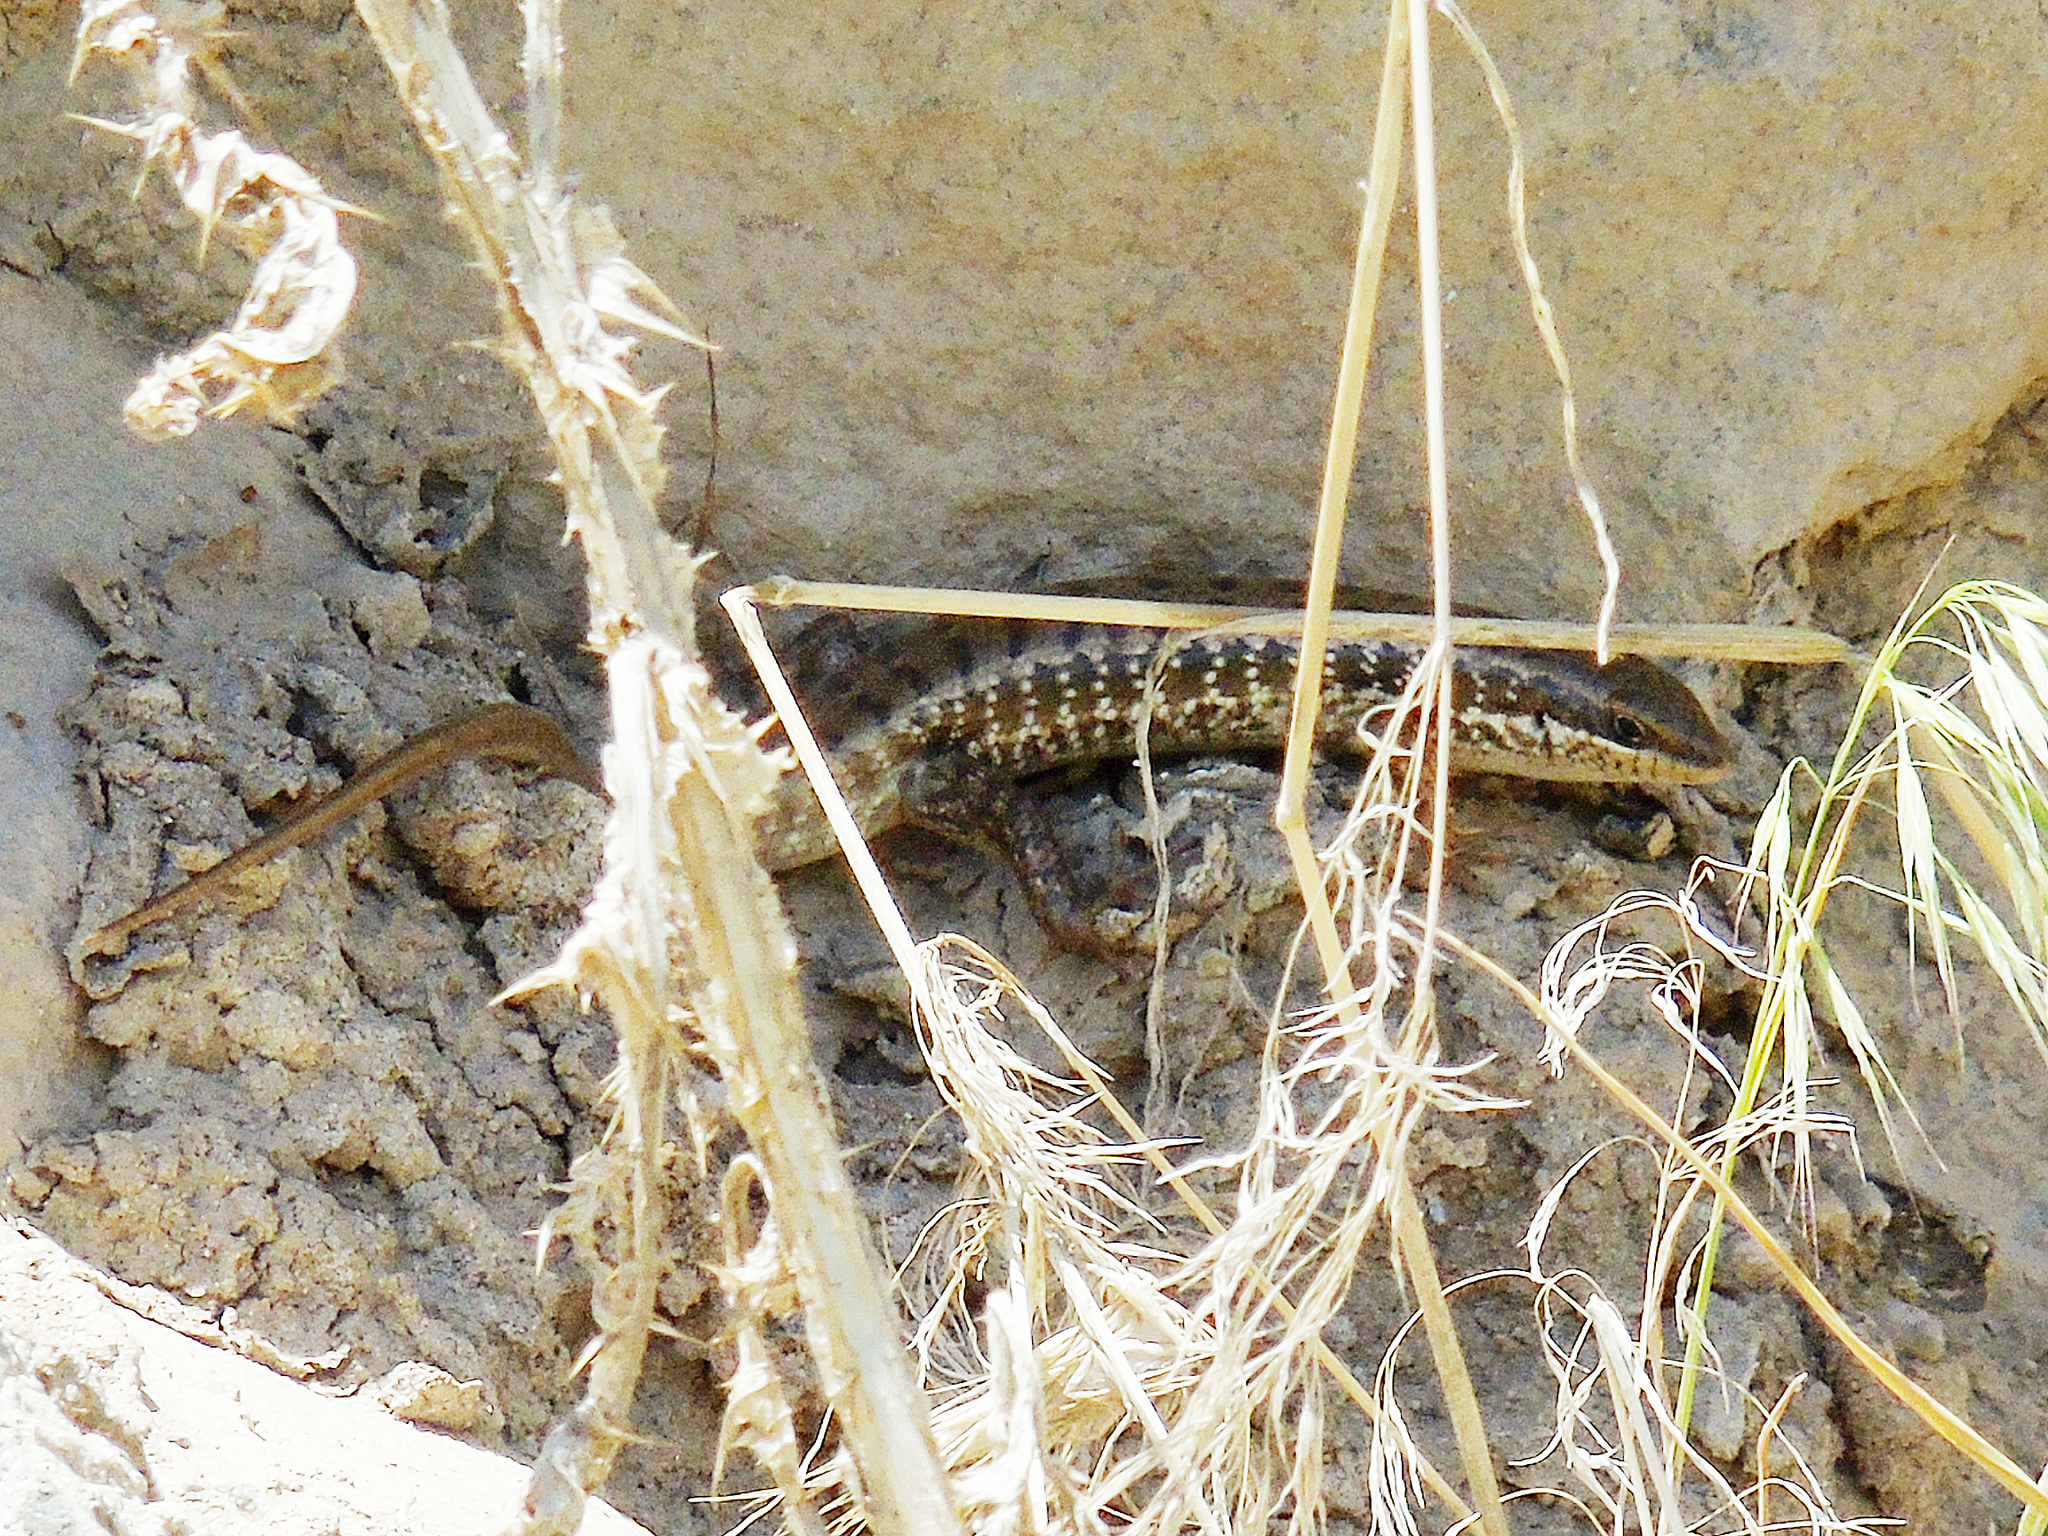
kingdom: Animalia
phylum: Chordata
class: Squamata
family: Scincidae
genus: Heremites
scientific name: Heremites auratus
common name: Golden grass mabuya
